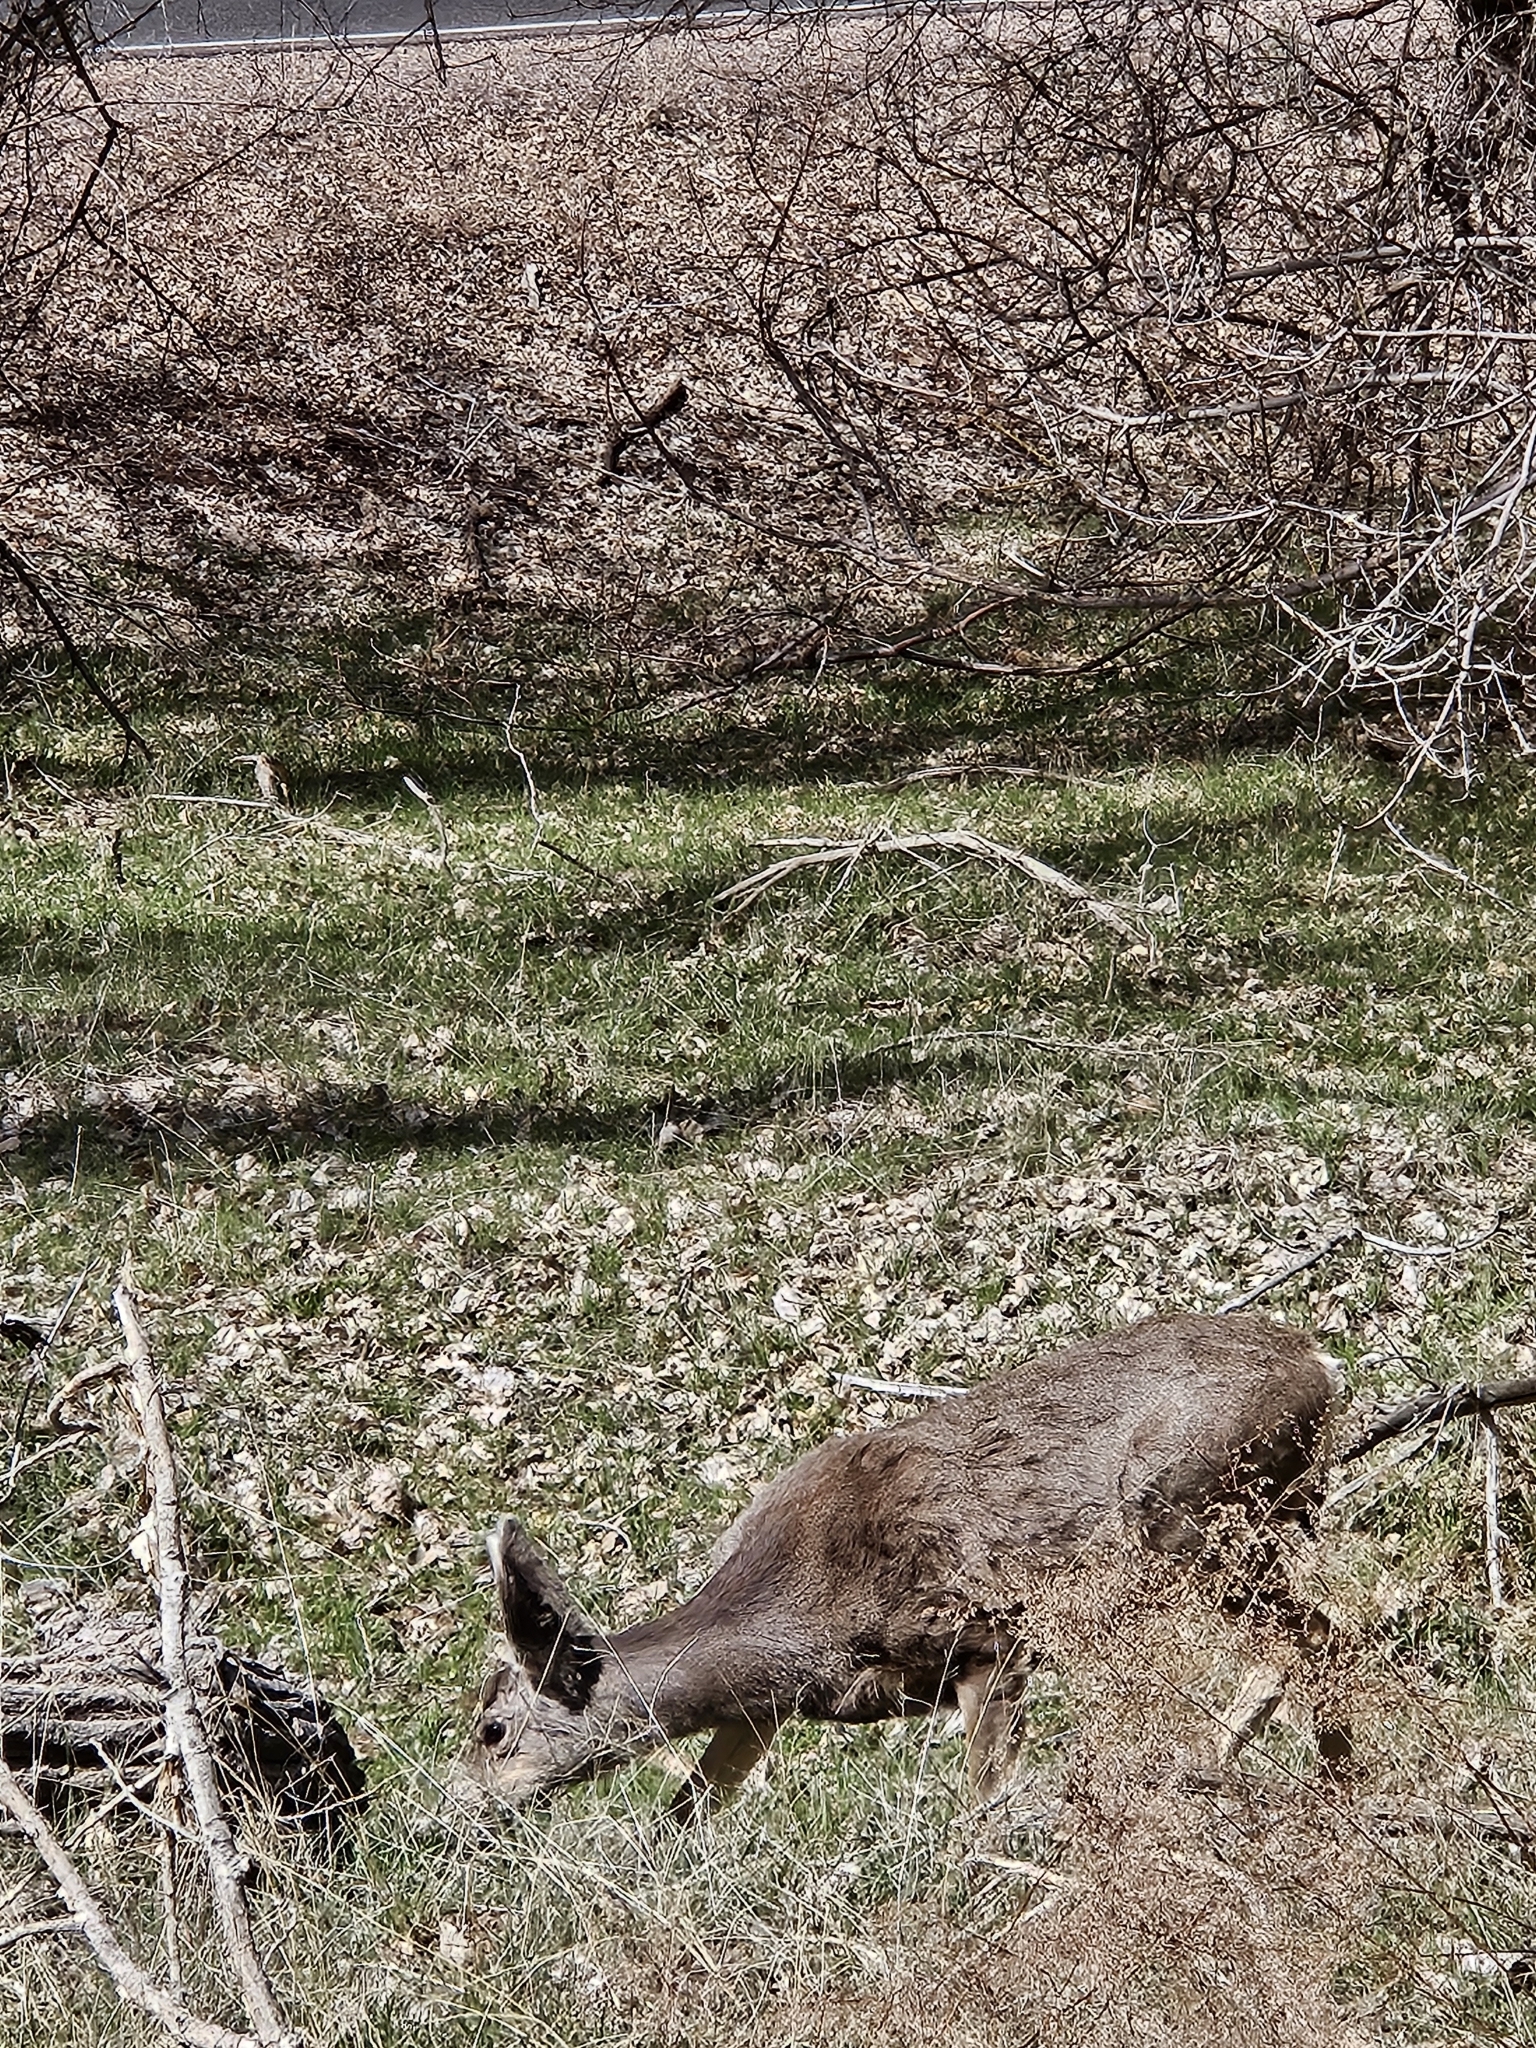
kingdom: Animalia
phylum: Chordata
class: Mammalia
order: Artiodactyla
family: Cervidae
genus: Odocoileus
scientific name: Odocoileus hemionus
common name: Mule deer
